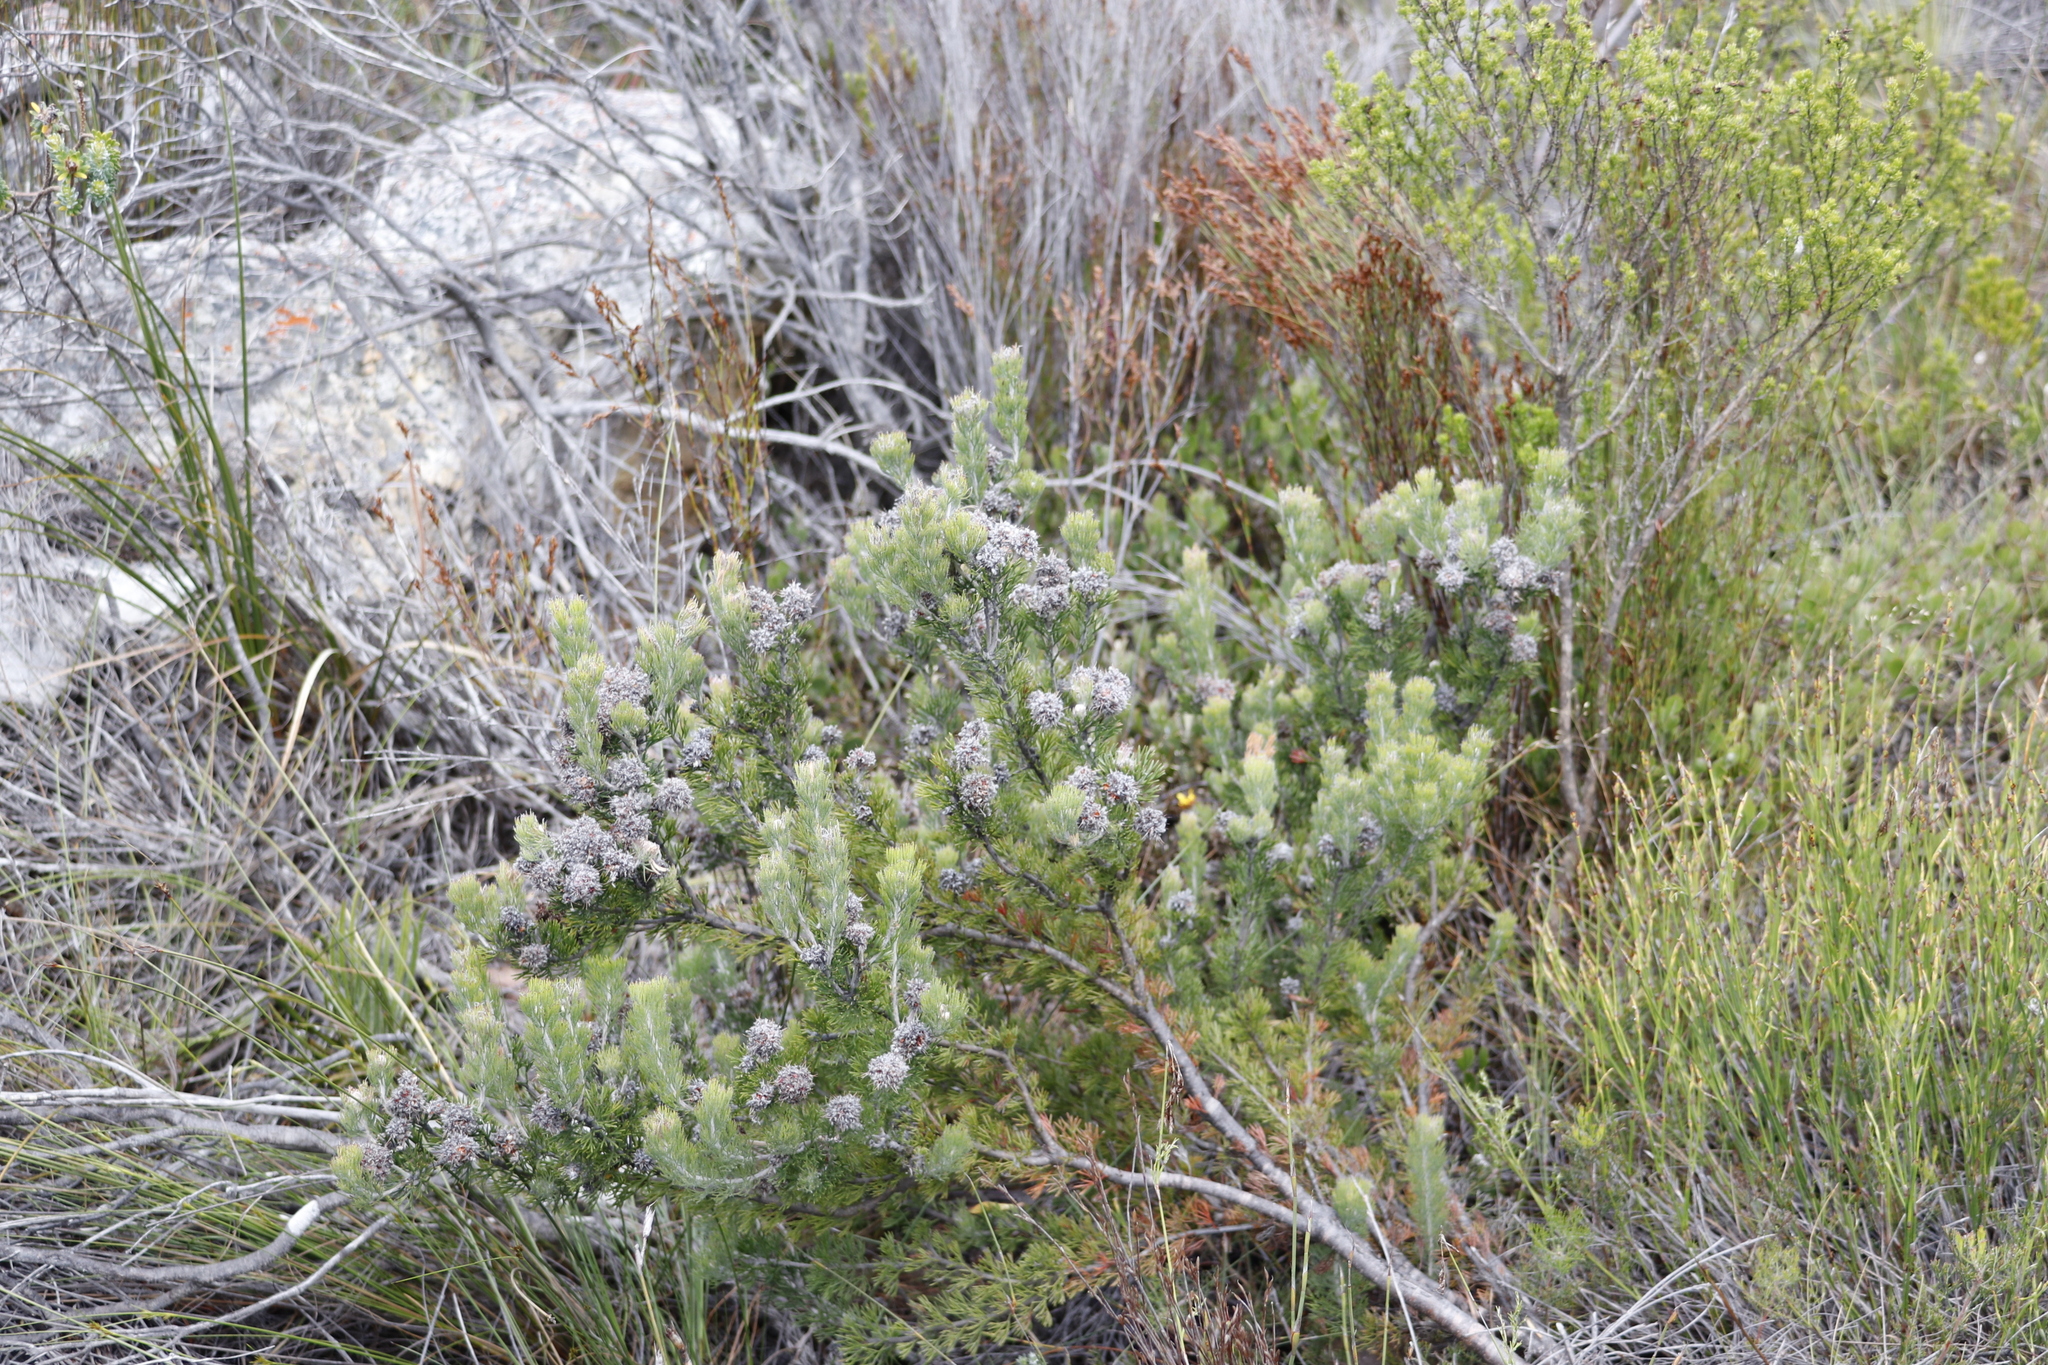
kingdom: Plantae
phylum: Tracheophyta
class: Magnoliopsida
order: Proteales
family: Proteaceae
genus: Paranomus
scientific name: Paranomus abrotanifolius
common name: Bredasdorp sceptre
